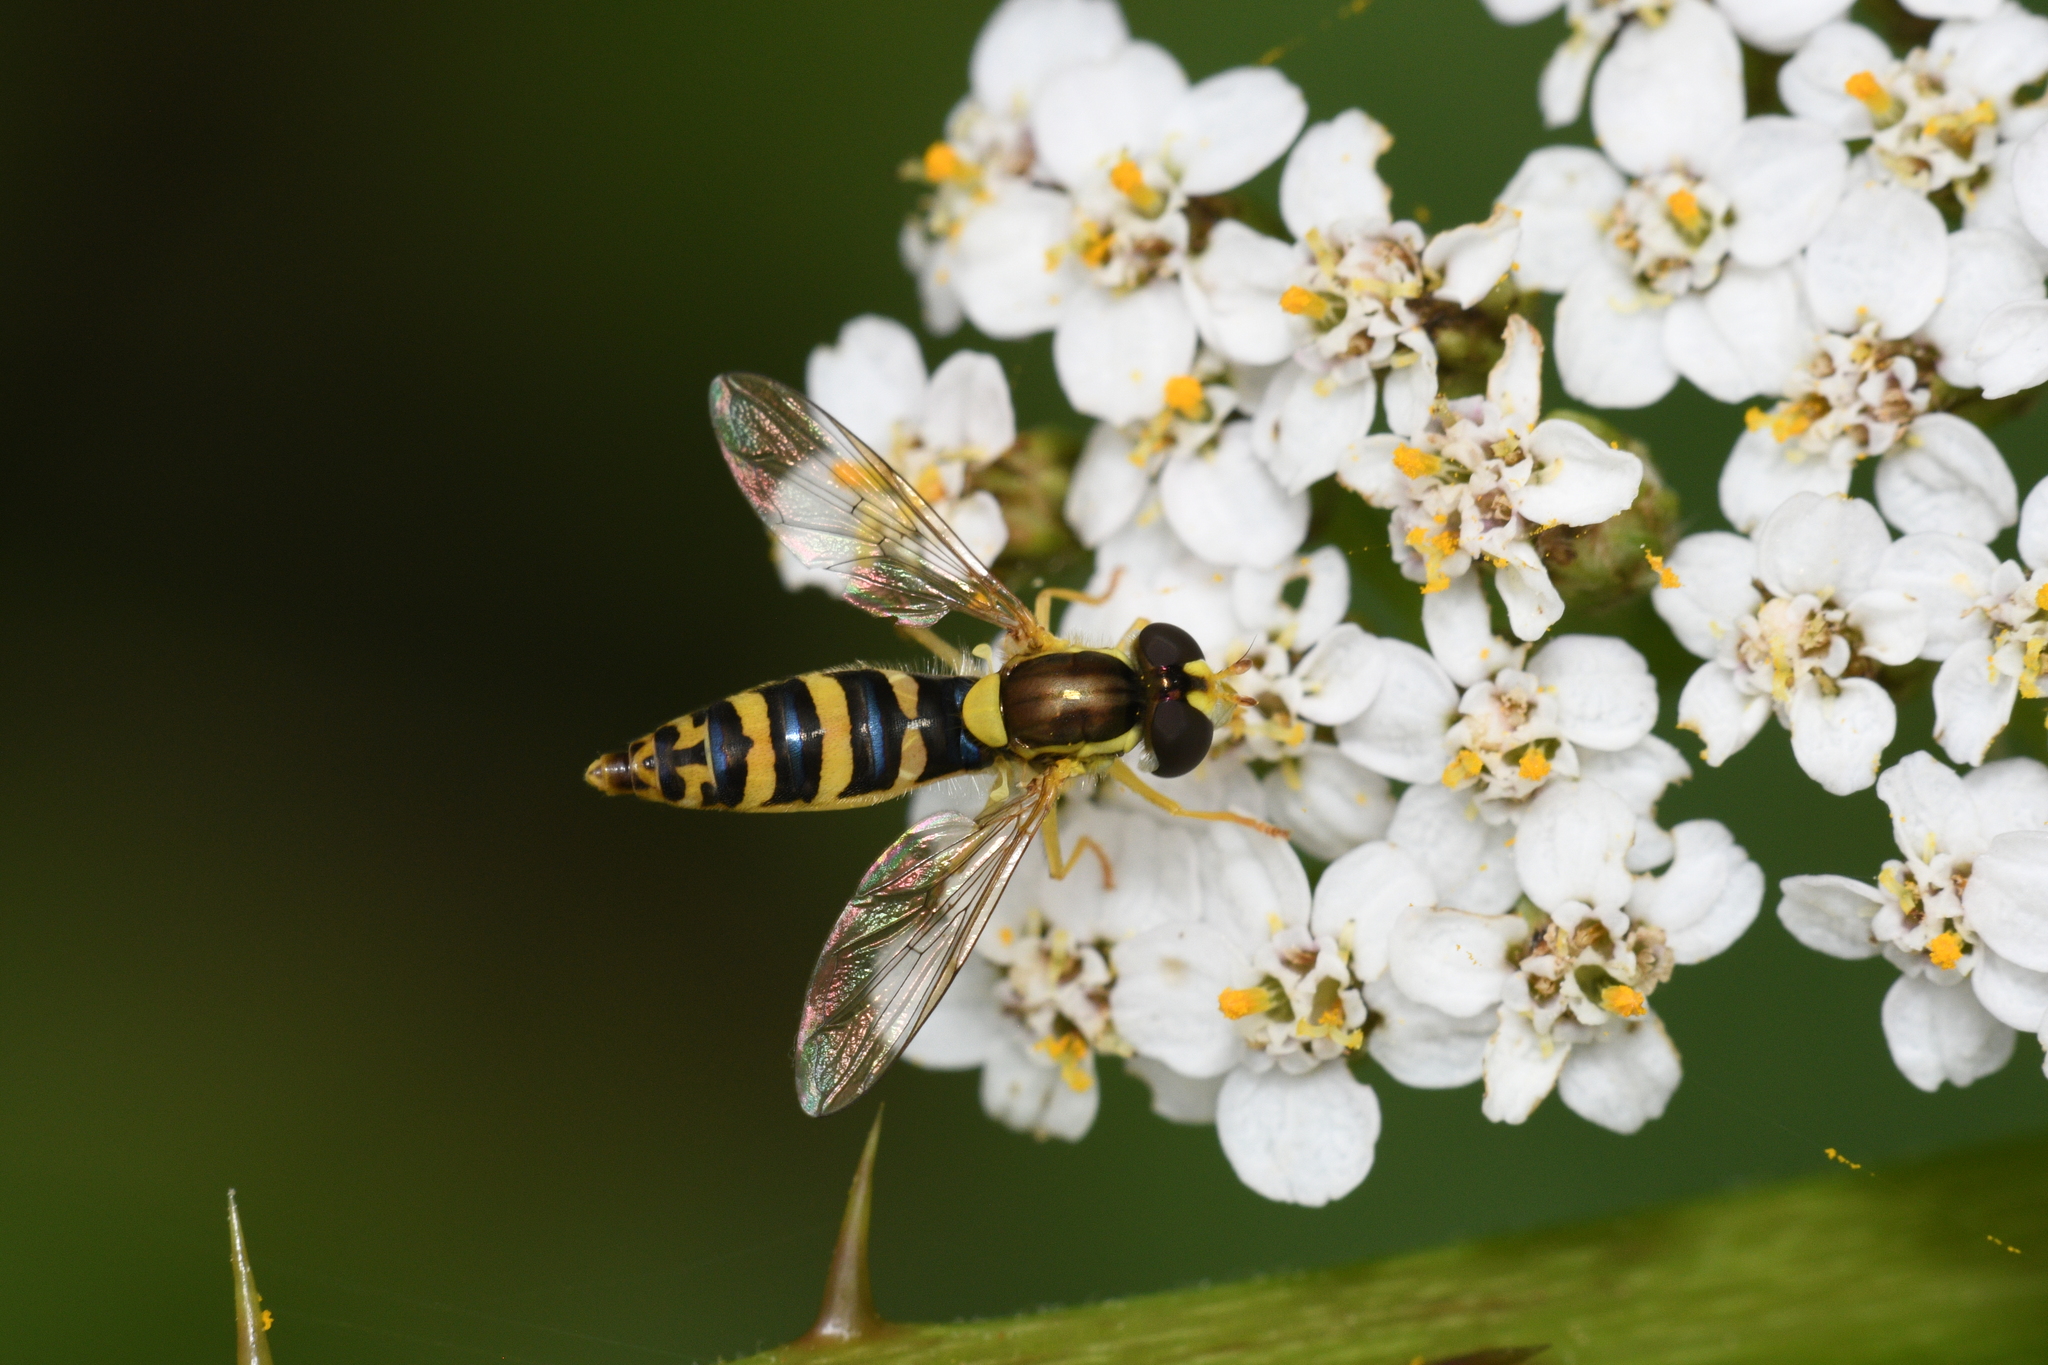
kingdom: Animalia
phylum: Arthropoda
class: Insecta
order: Diptera
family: Syrphidae
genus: Sphaerophoria
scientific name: Sphaerophoria
